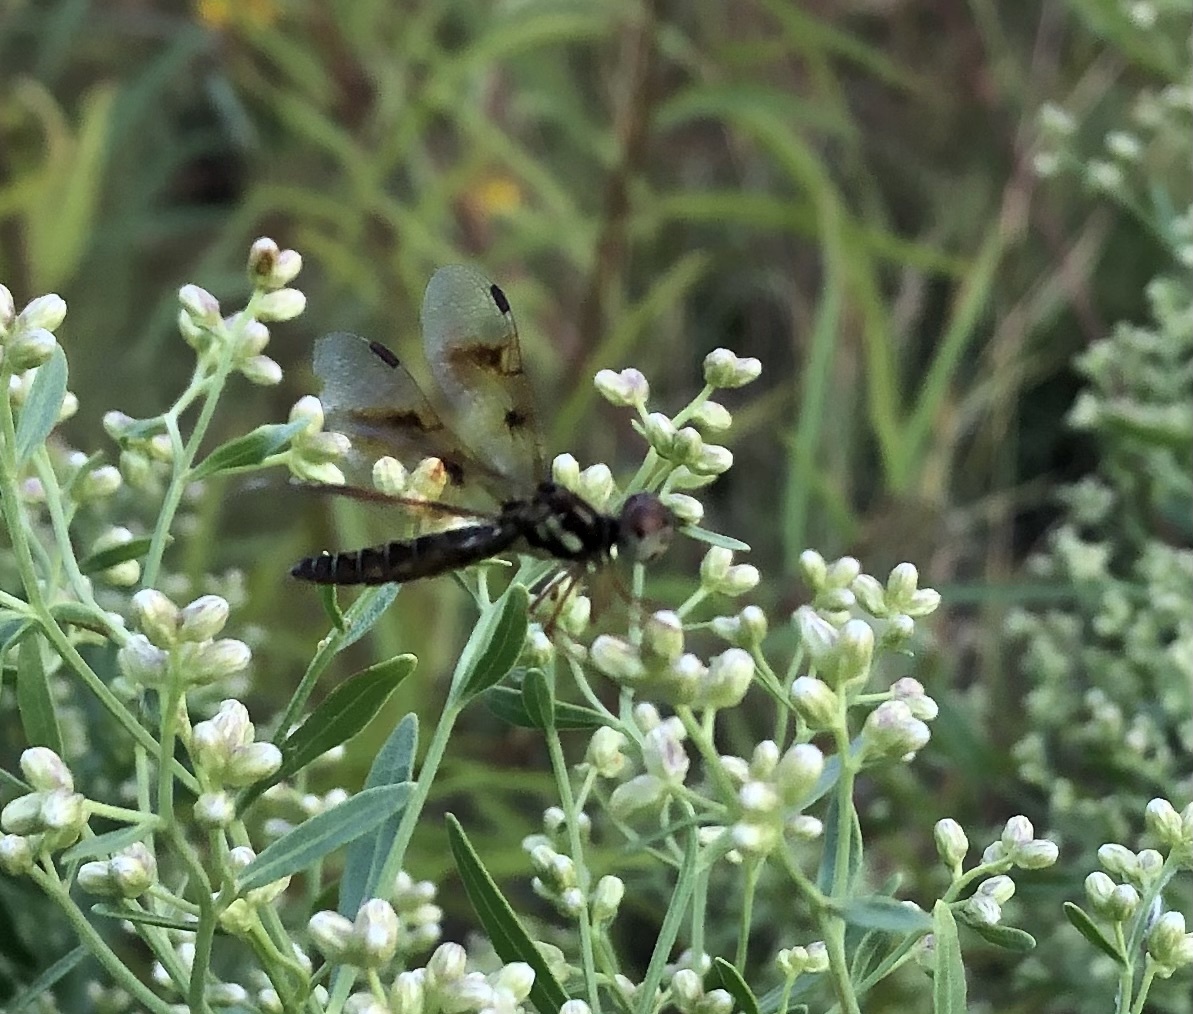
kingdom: Animalia
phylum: Arthropoda
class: Insecta
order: Odonata
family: Libellulidae
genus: Perithemis
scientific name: Perithemis tenera
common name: Eastern amberwing
